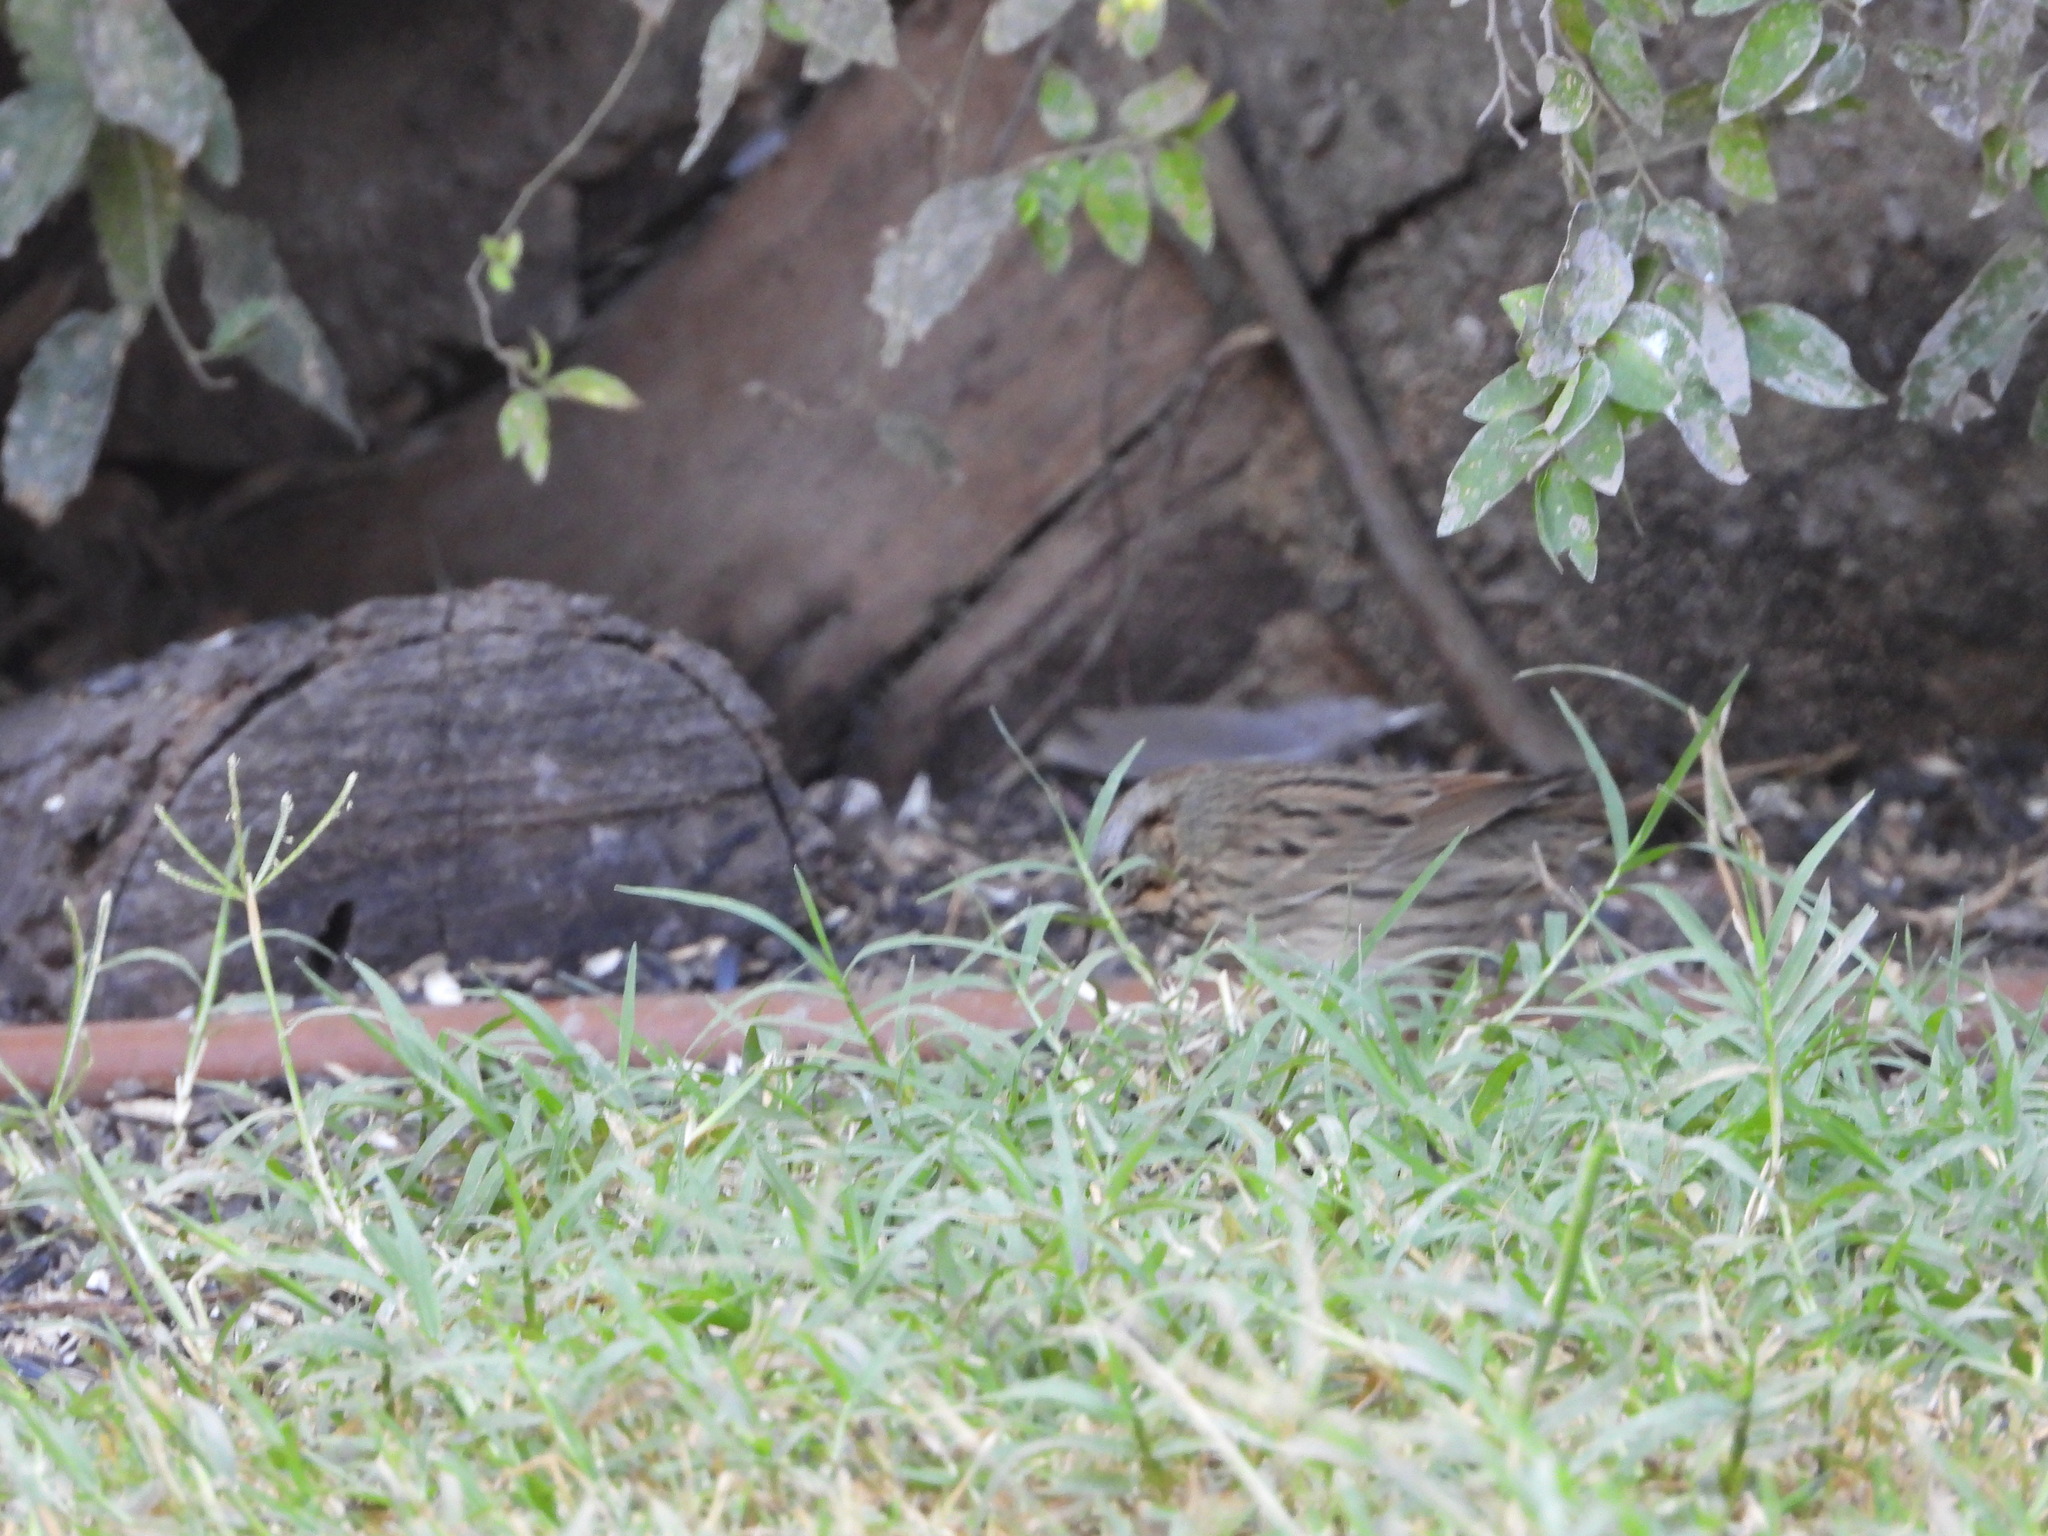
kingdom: Animalia
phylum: Chordata
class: Aves
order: Passeriformes
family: Passerellidae
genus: Melospiza
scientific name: Melospiza lincolnii
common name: Lincoln's sparrow
